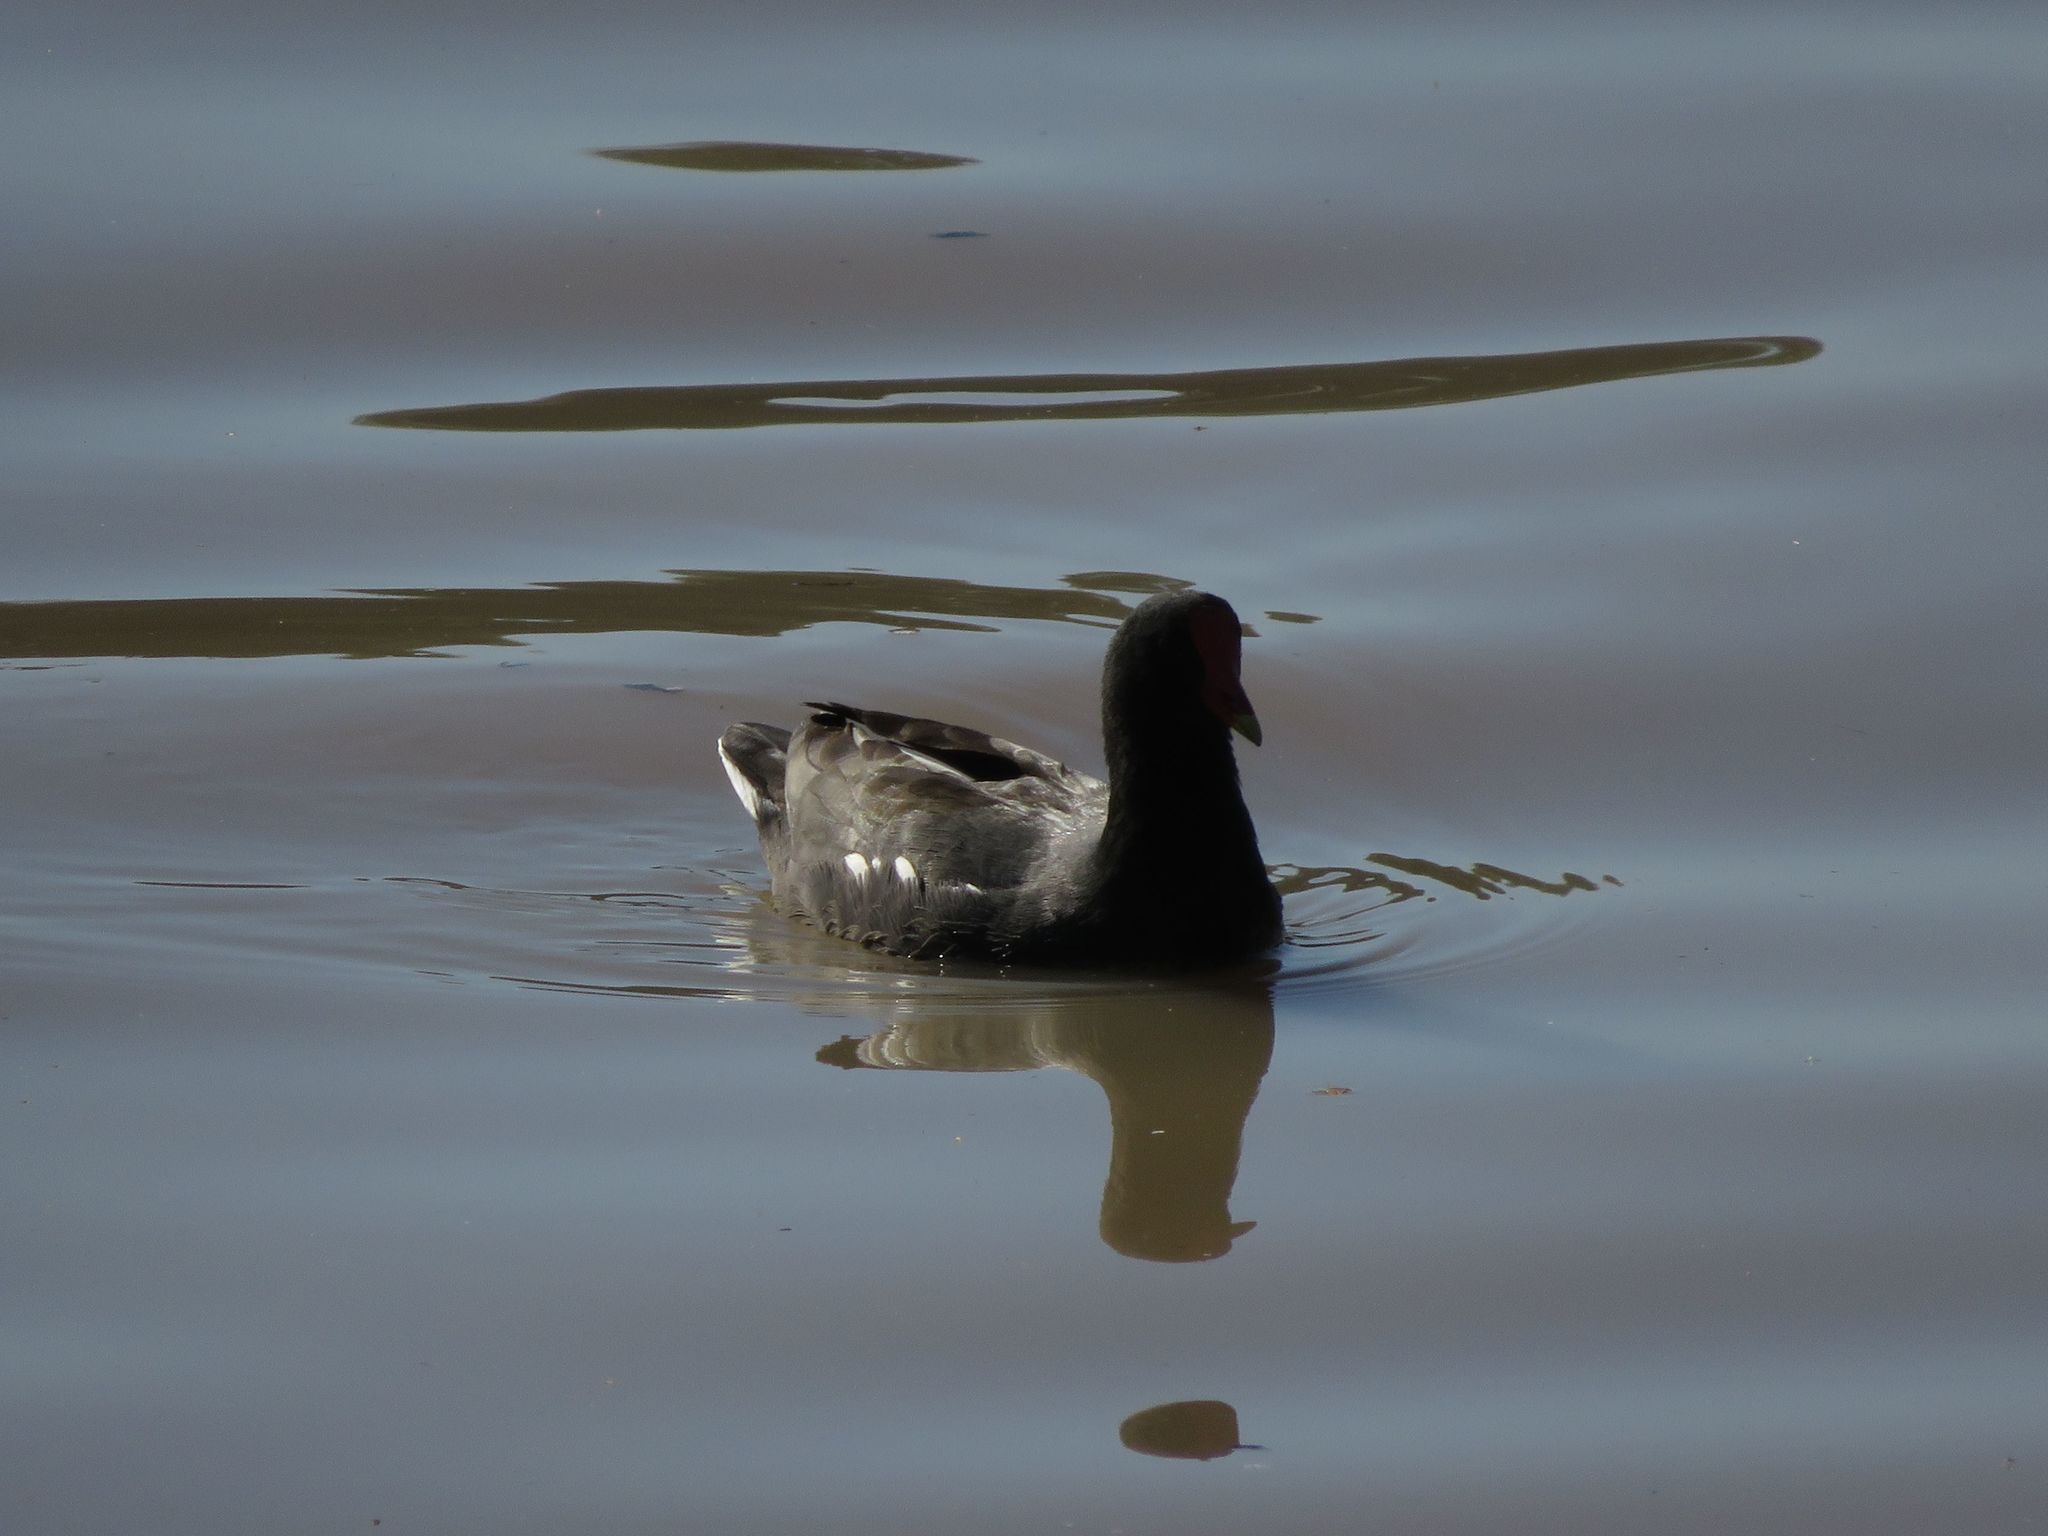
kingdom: Animalia
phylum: Chordata
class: Aves
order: Gruiformes
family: Rallidae
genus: Gallinula
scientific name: Gallinula chloropus
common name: Common moorhen
